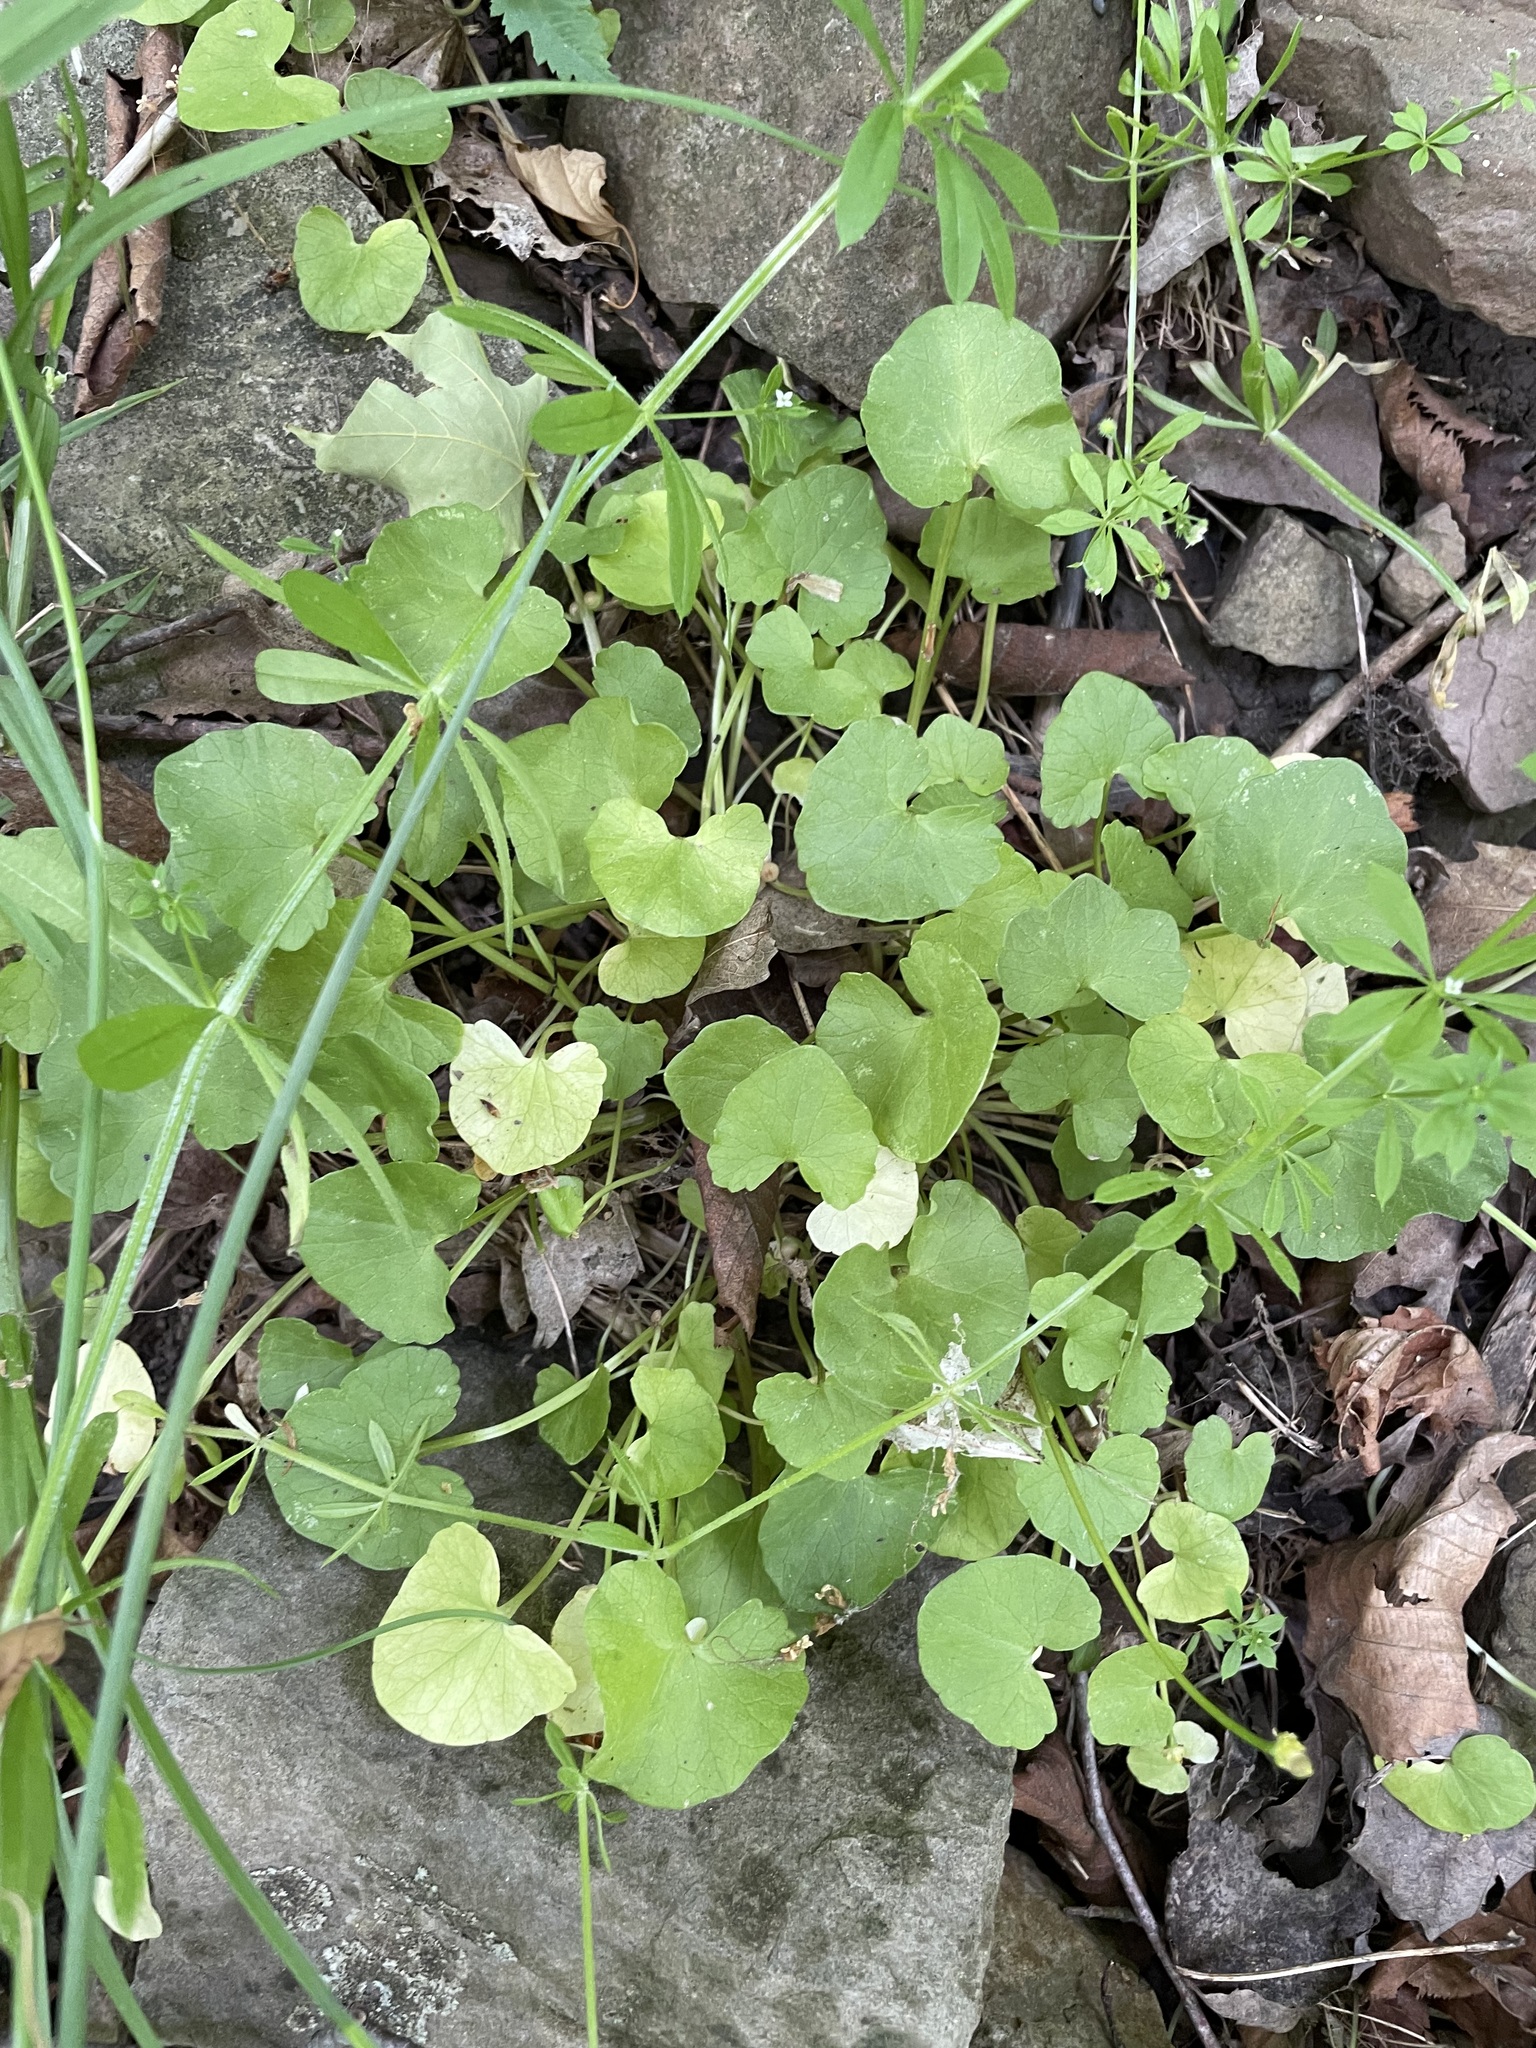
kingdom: Plantae
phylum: Tracheophyta
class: Magnoliopsida
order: Ranunculales
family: Ranunculaceae
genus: Ficaria
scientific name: Ficaria verna
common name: Lesser celandine
